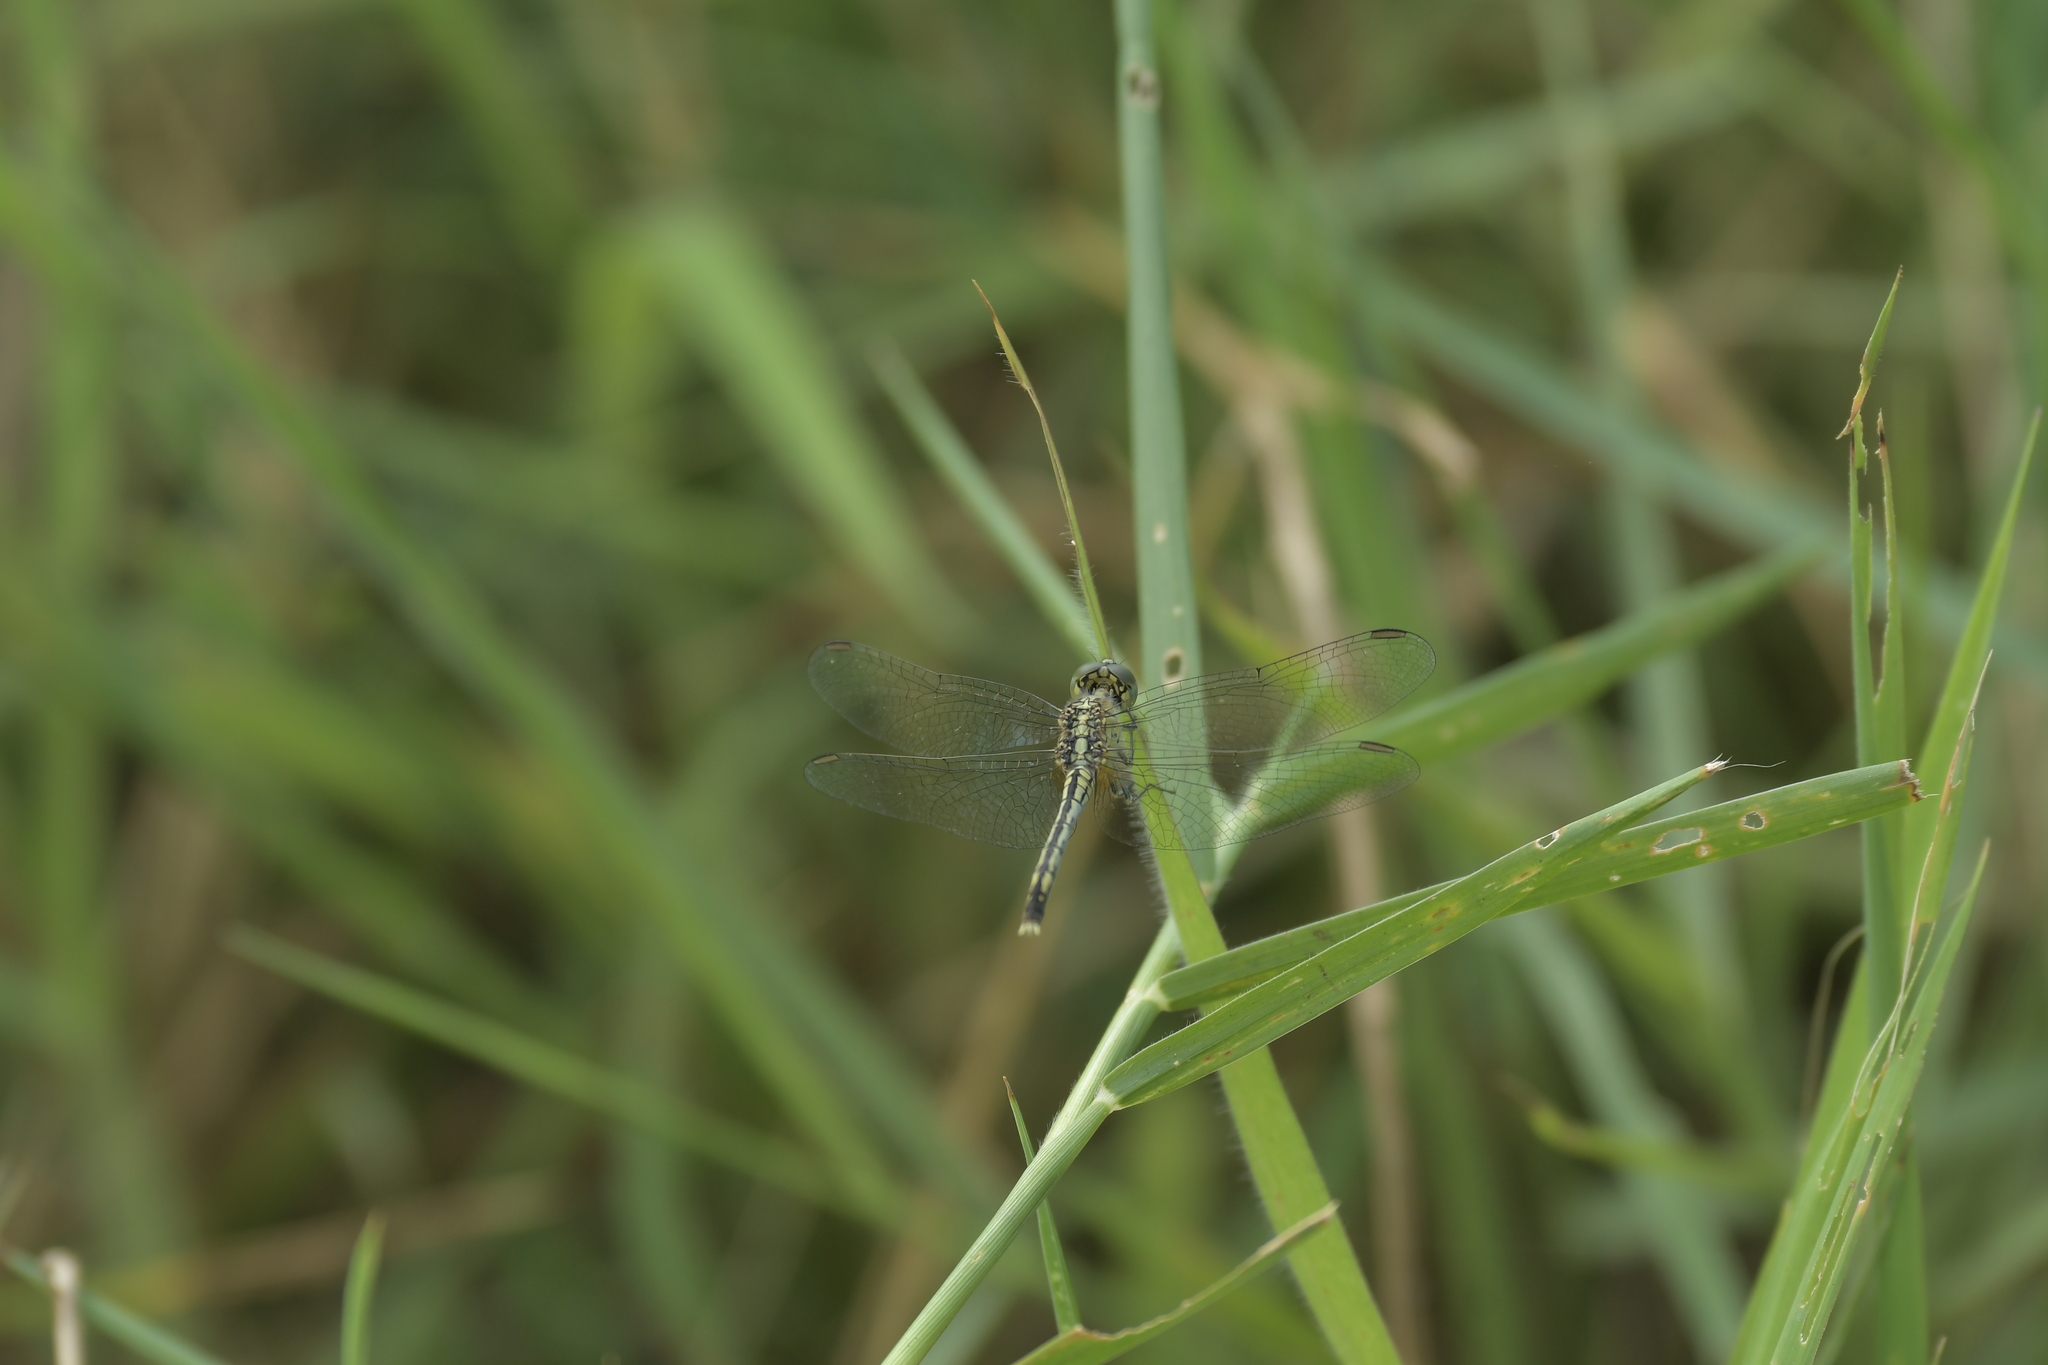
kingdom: Animalia
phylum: Arthropoda
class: Insecta
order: Odonata
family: Libellulidae
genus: Diplacodes
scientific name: Diplacodes trivialis
